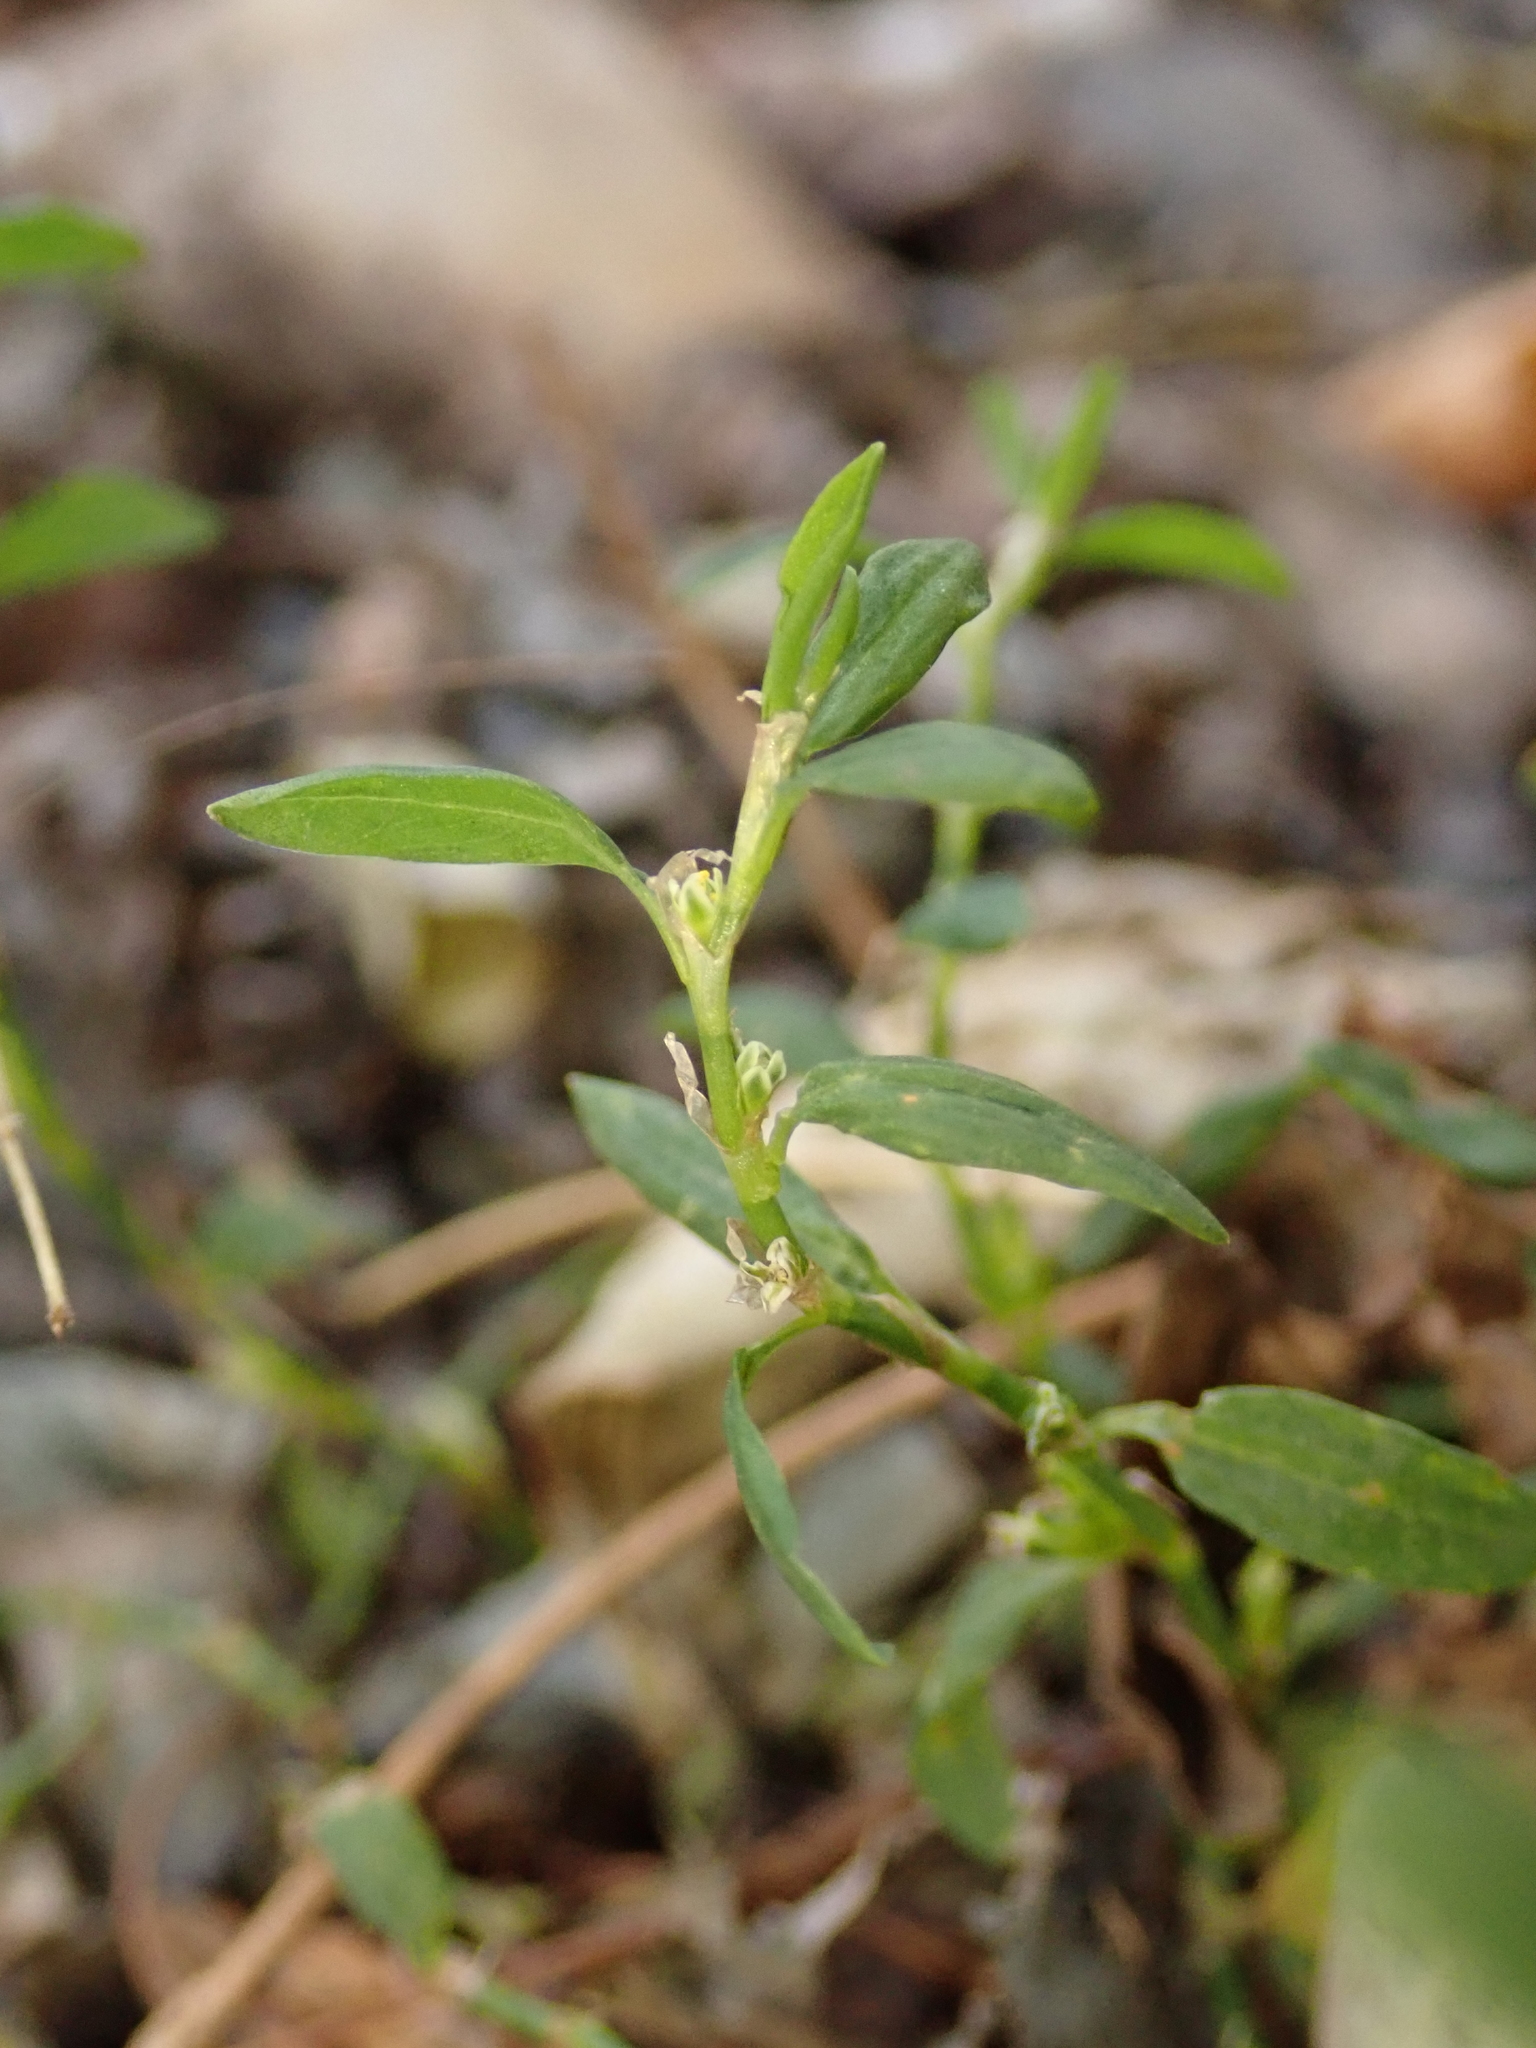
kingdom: Plantae
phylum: Tracheophyta
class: Magnoliopsida
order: Caryophyllales
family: Polygonaceae
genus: Polygonum
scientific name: Polygonum aviculare
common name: Prostrate knotweed
